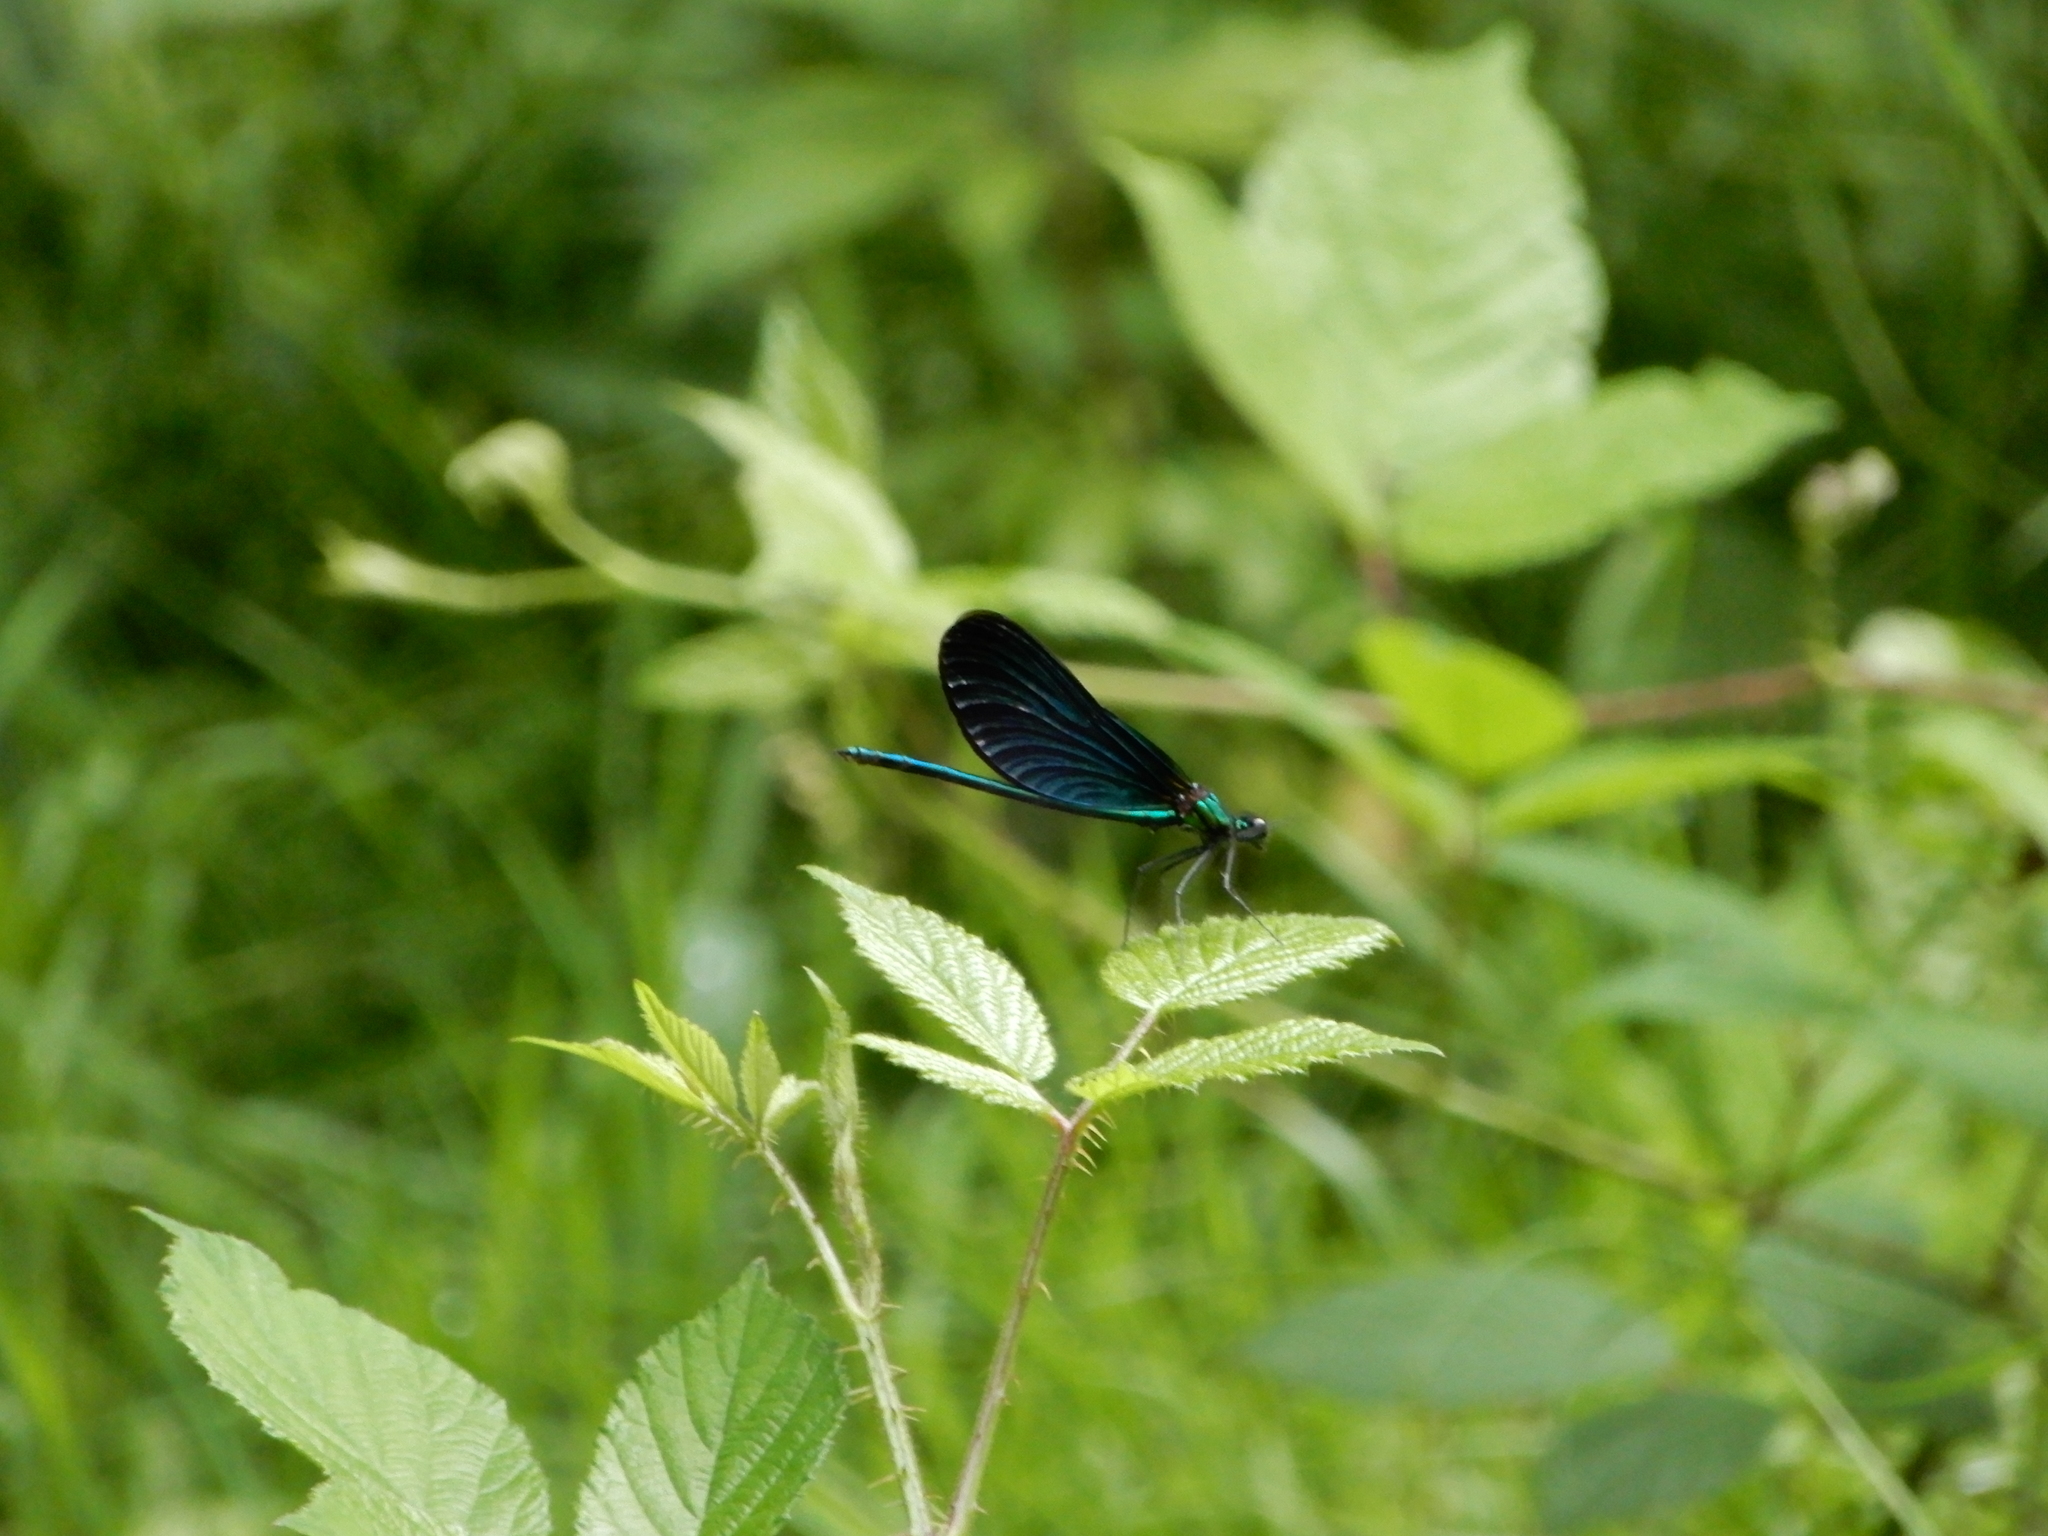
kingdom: Animalia
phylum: Arthropoda
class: Insecta
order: Odonata
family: Calopterygidae
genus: Calopteryx
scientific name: Calopteryx virgo
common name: Beautiful demoiselle
